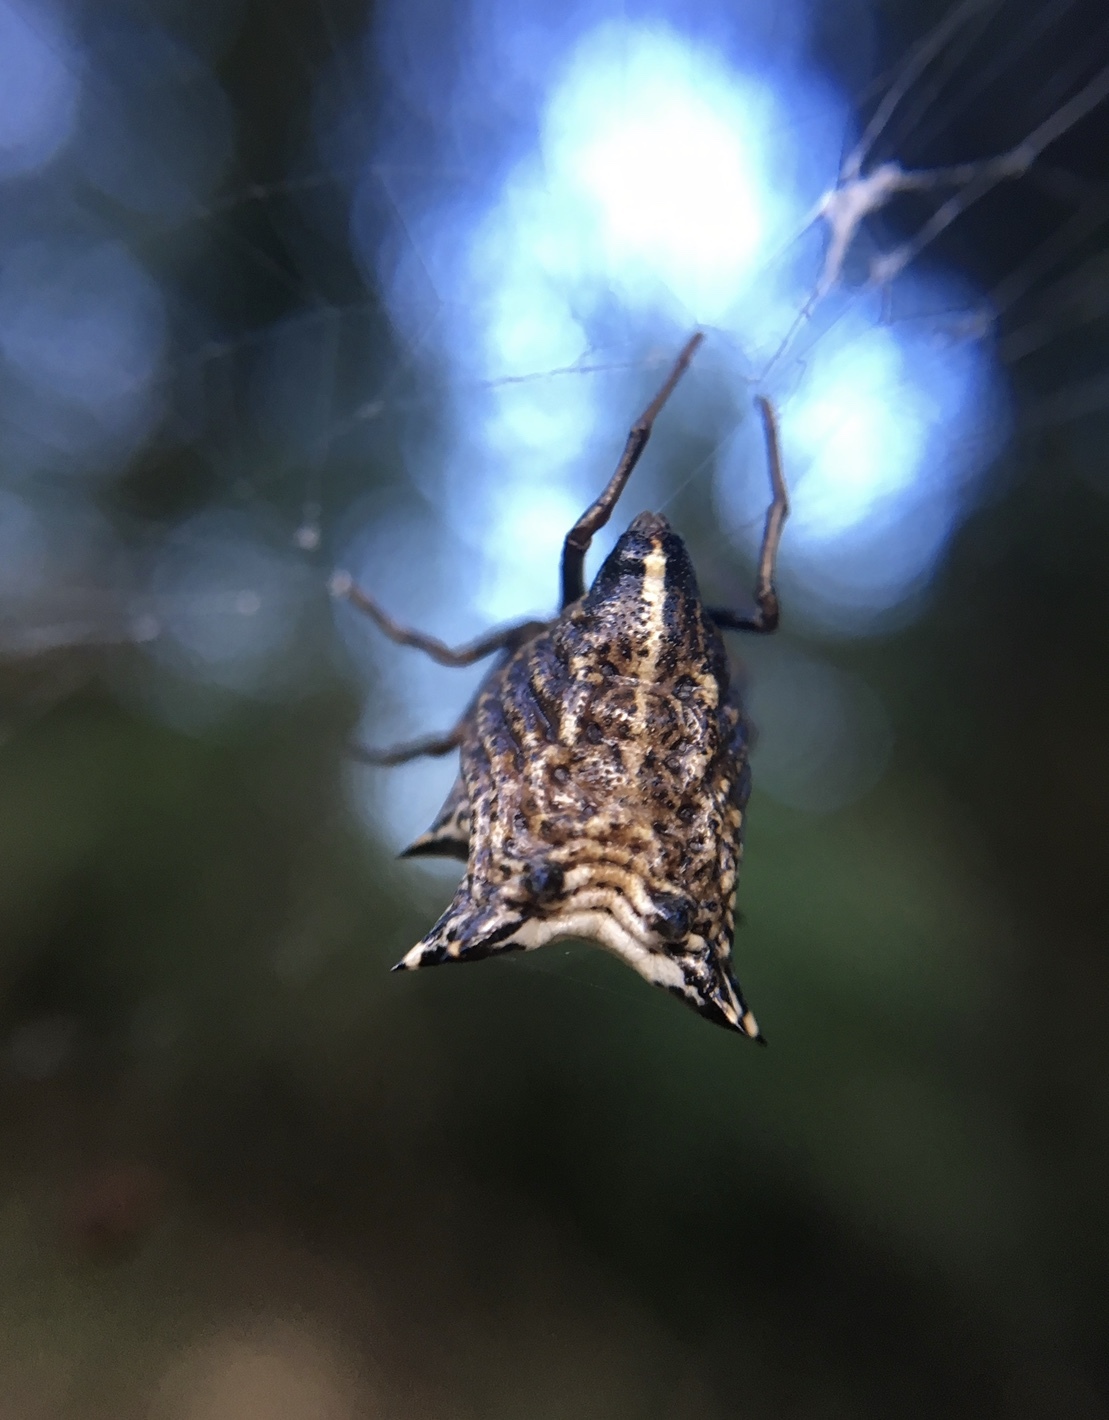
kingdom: Animalia
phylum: Arthropoda
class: Arachnida
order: Araneae
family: Araneidae
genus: Micrathena
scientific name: Micrathena gracilis
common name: Orb weavers
